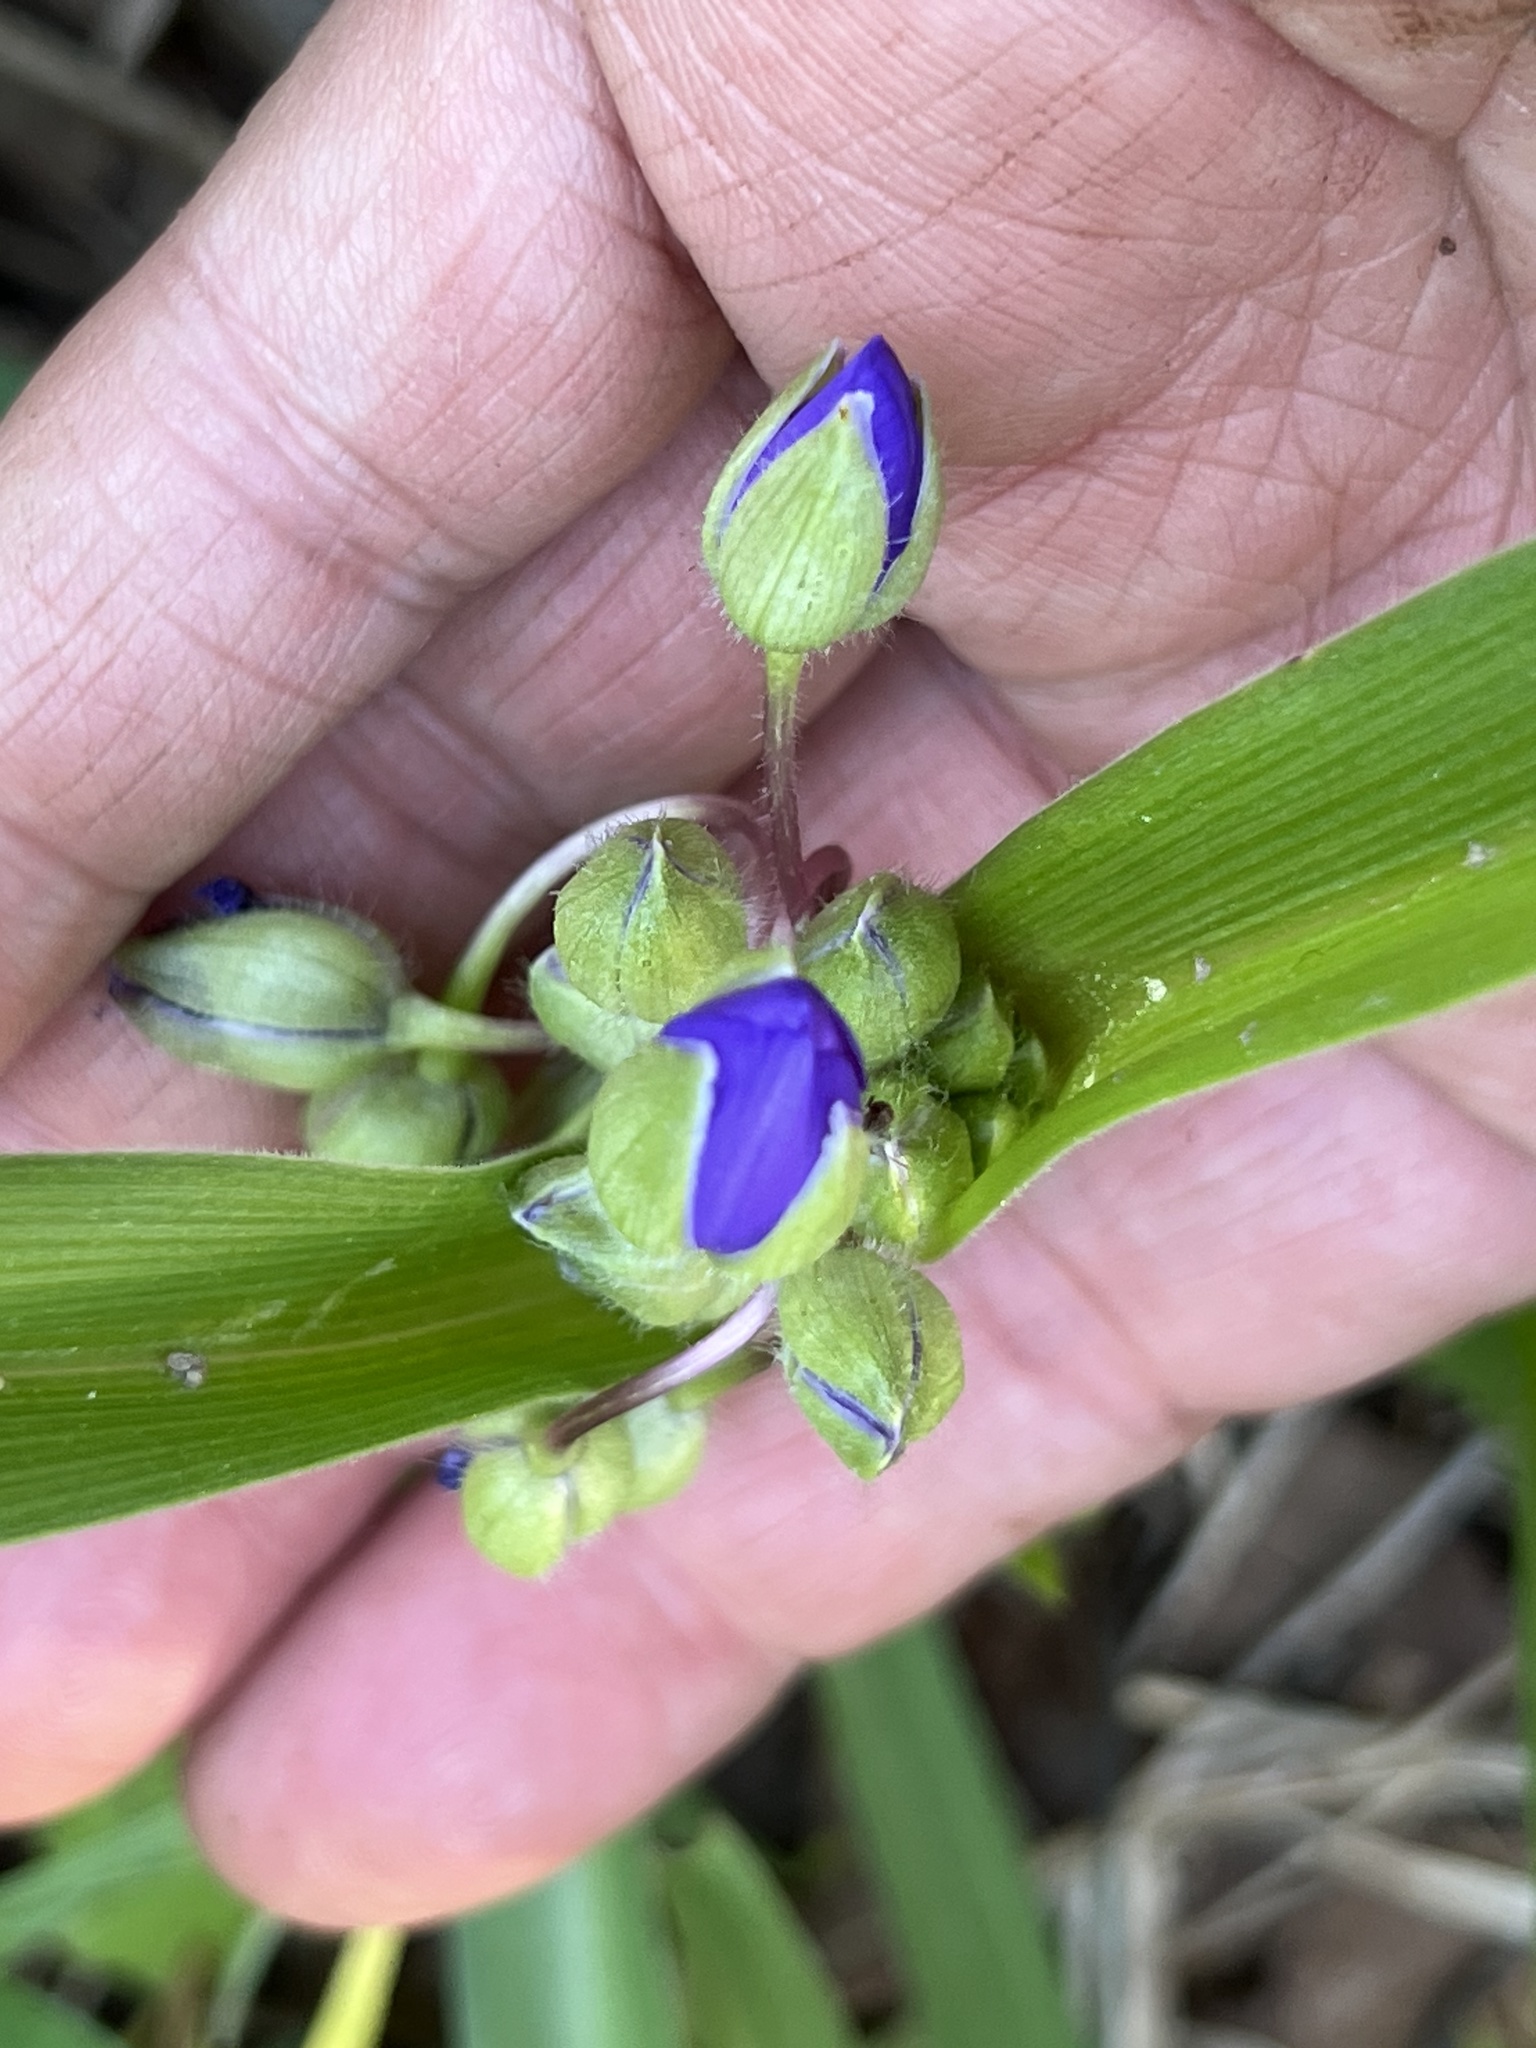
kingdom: Plantae
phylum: Tracheophyta
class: Liliopsida
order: Commelinales
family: Commelinaceae
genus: Tradescantia
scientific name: Tradescantia virginiana
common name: Spiderwort
